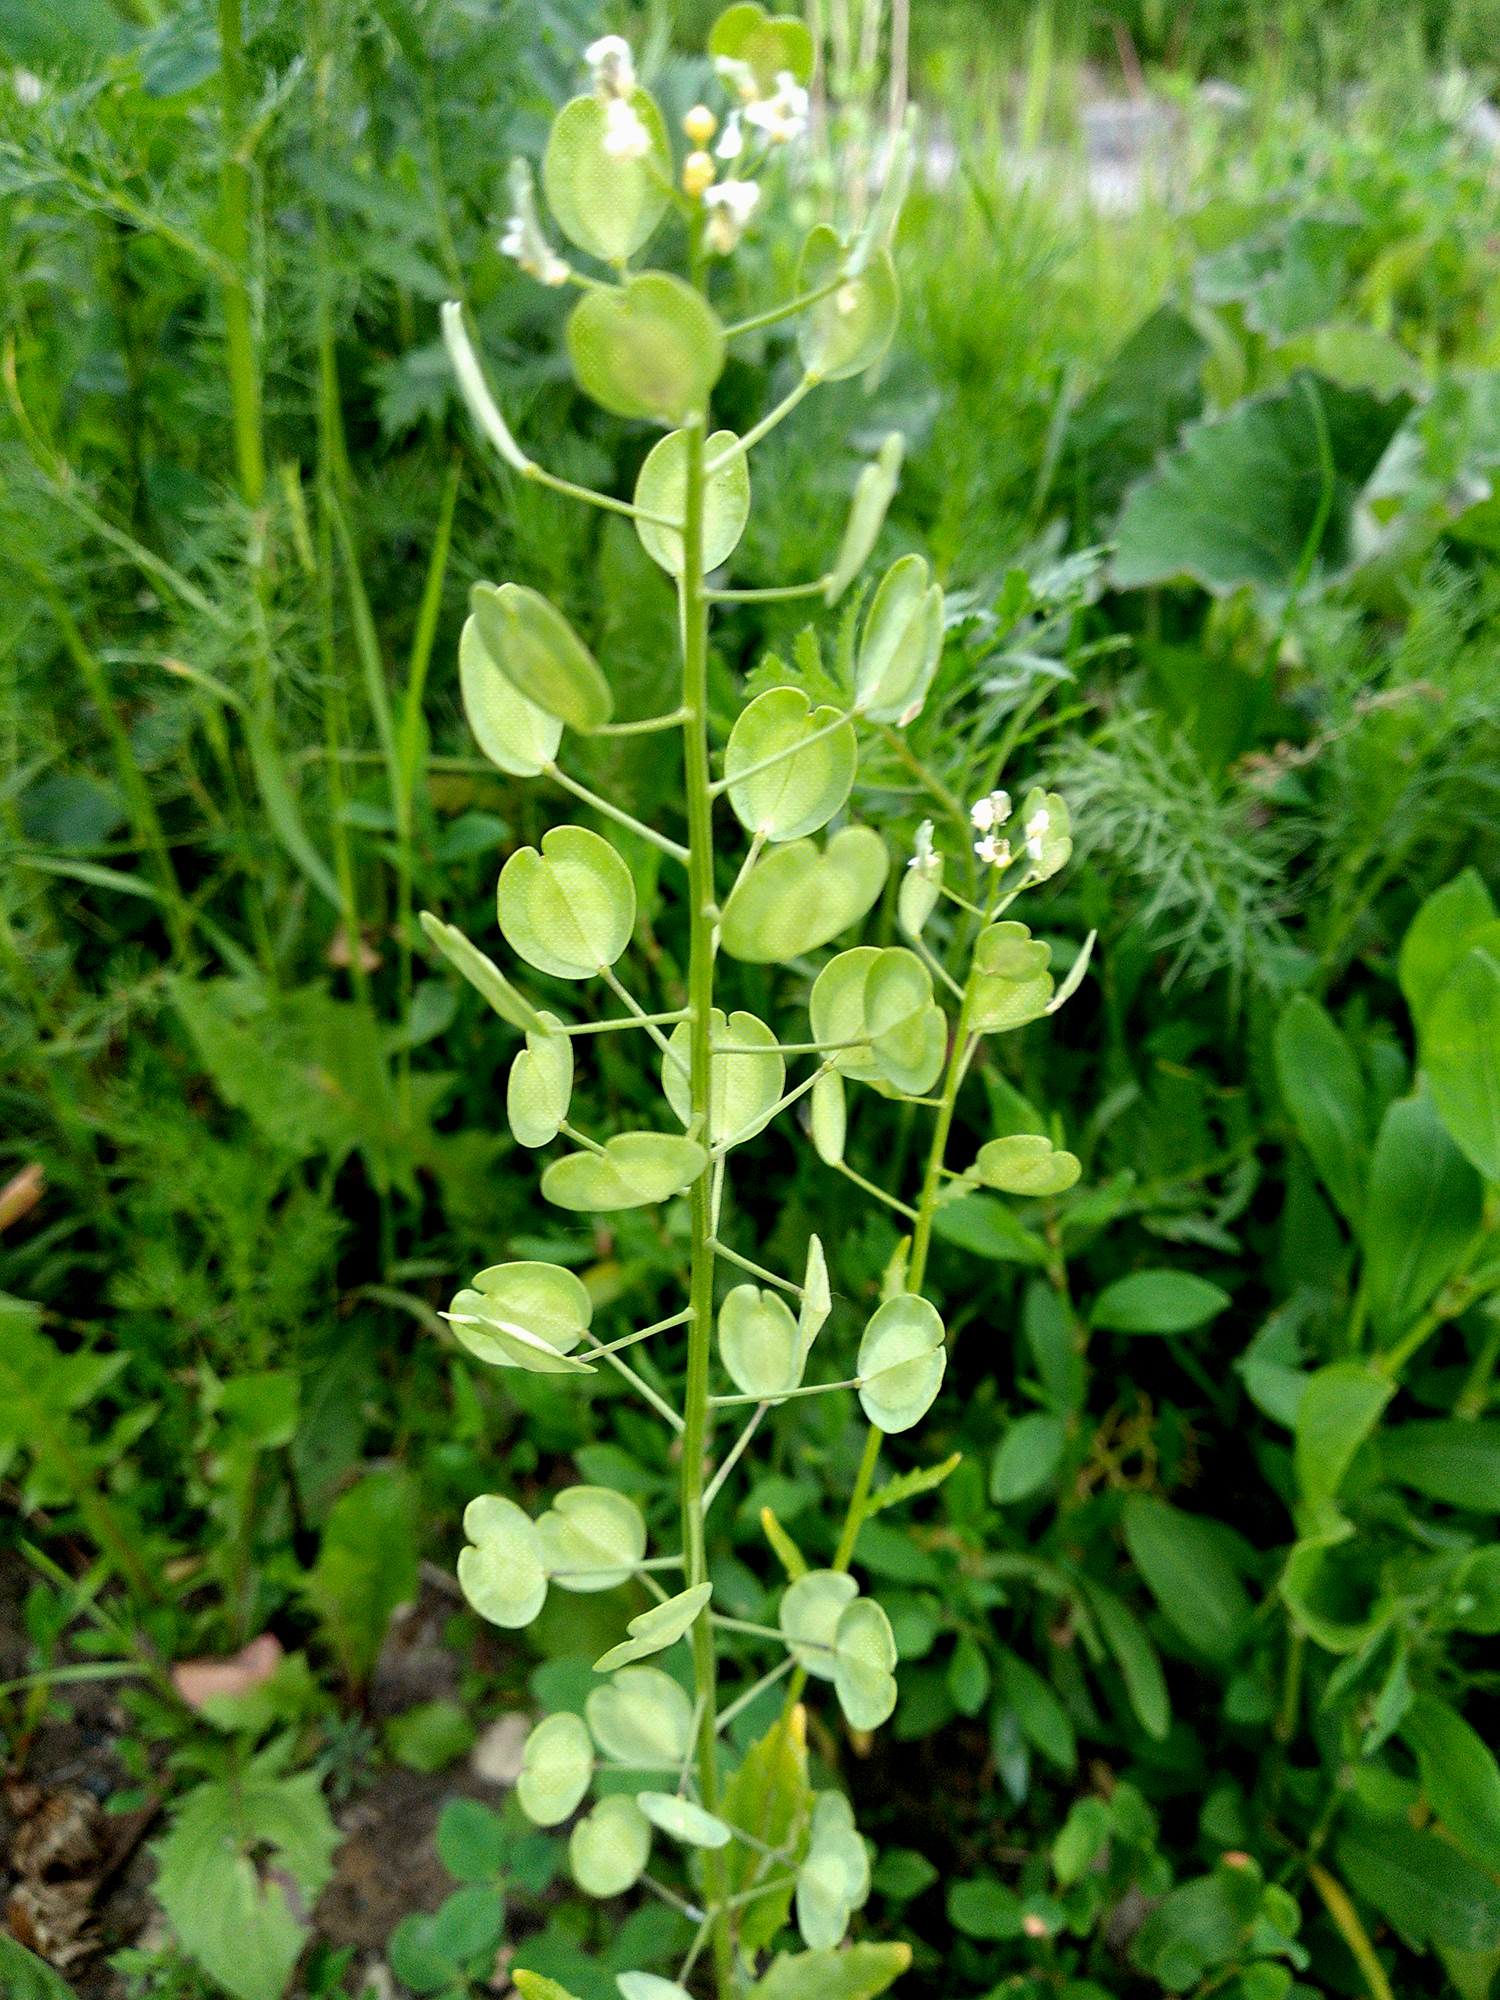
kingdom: Plantae
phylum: Tracheophyta
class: Magnoliopsida
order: Brassicales
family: Brassicaceae
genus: Thlaspi
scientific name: Thlaspi arvense
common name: Field pennycress
